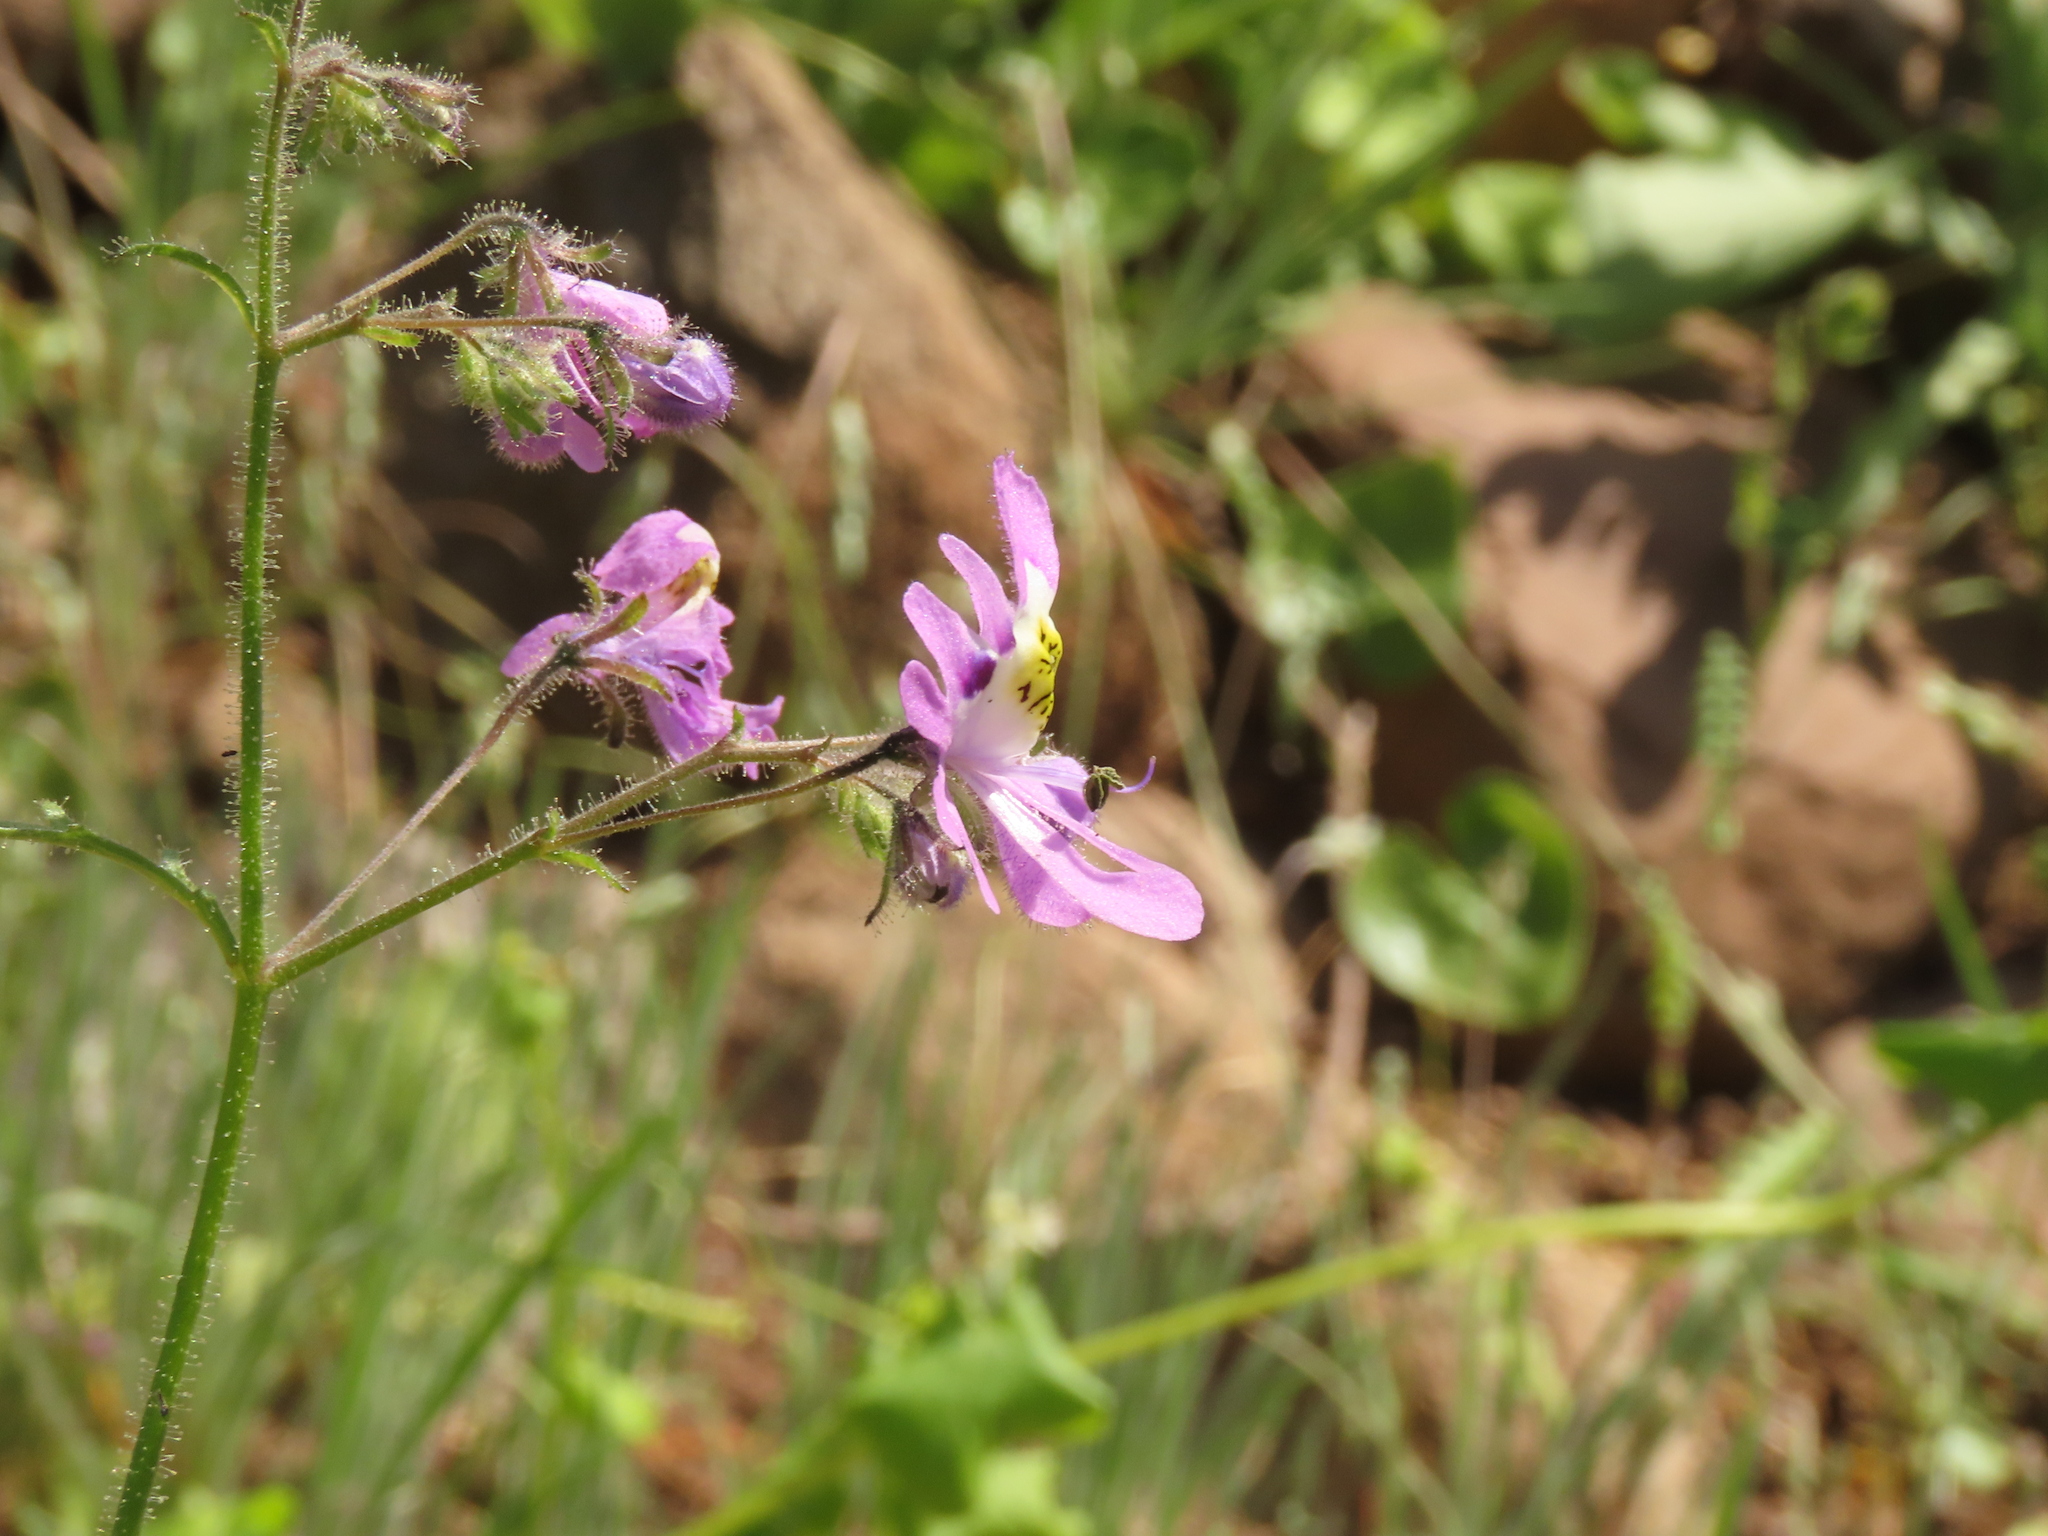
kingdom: Plantae
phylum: Tracheophyta
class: Magnoliopsida
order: Solanales
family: Solanaceae
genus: Schizanthus
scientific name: Schizanthus porrigens
